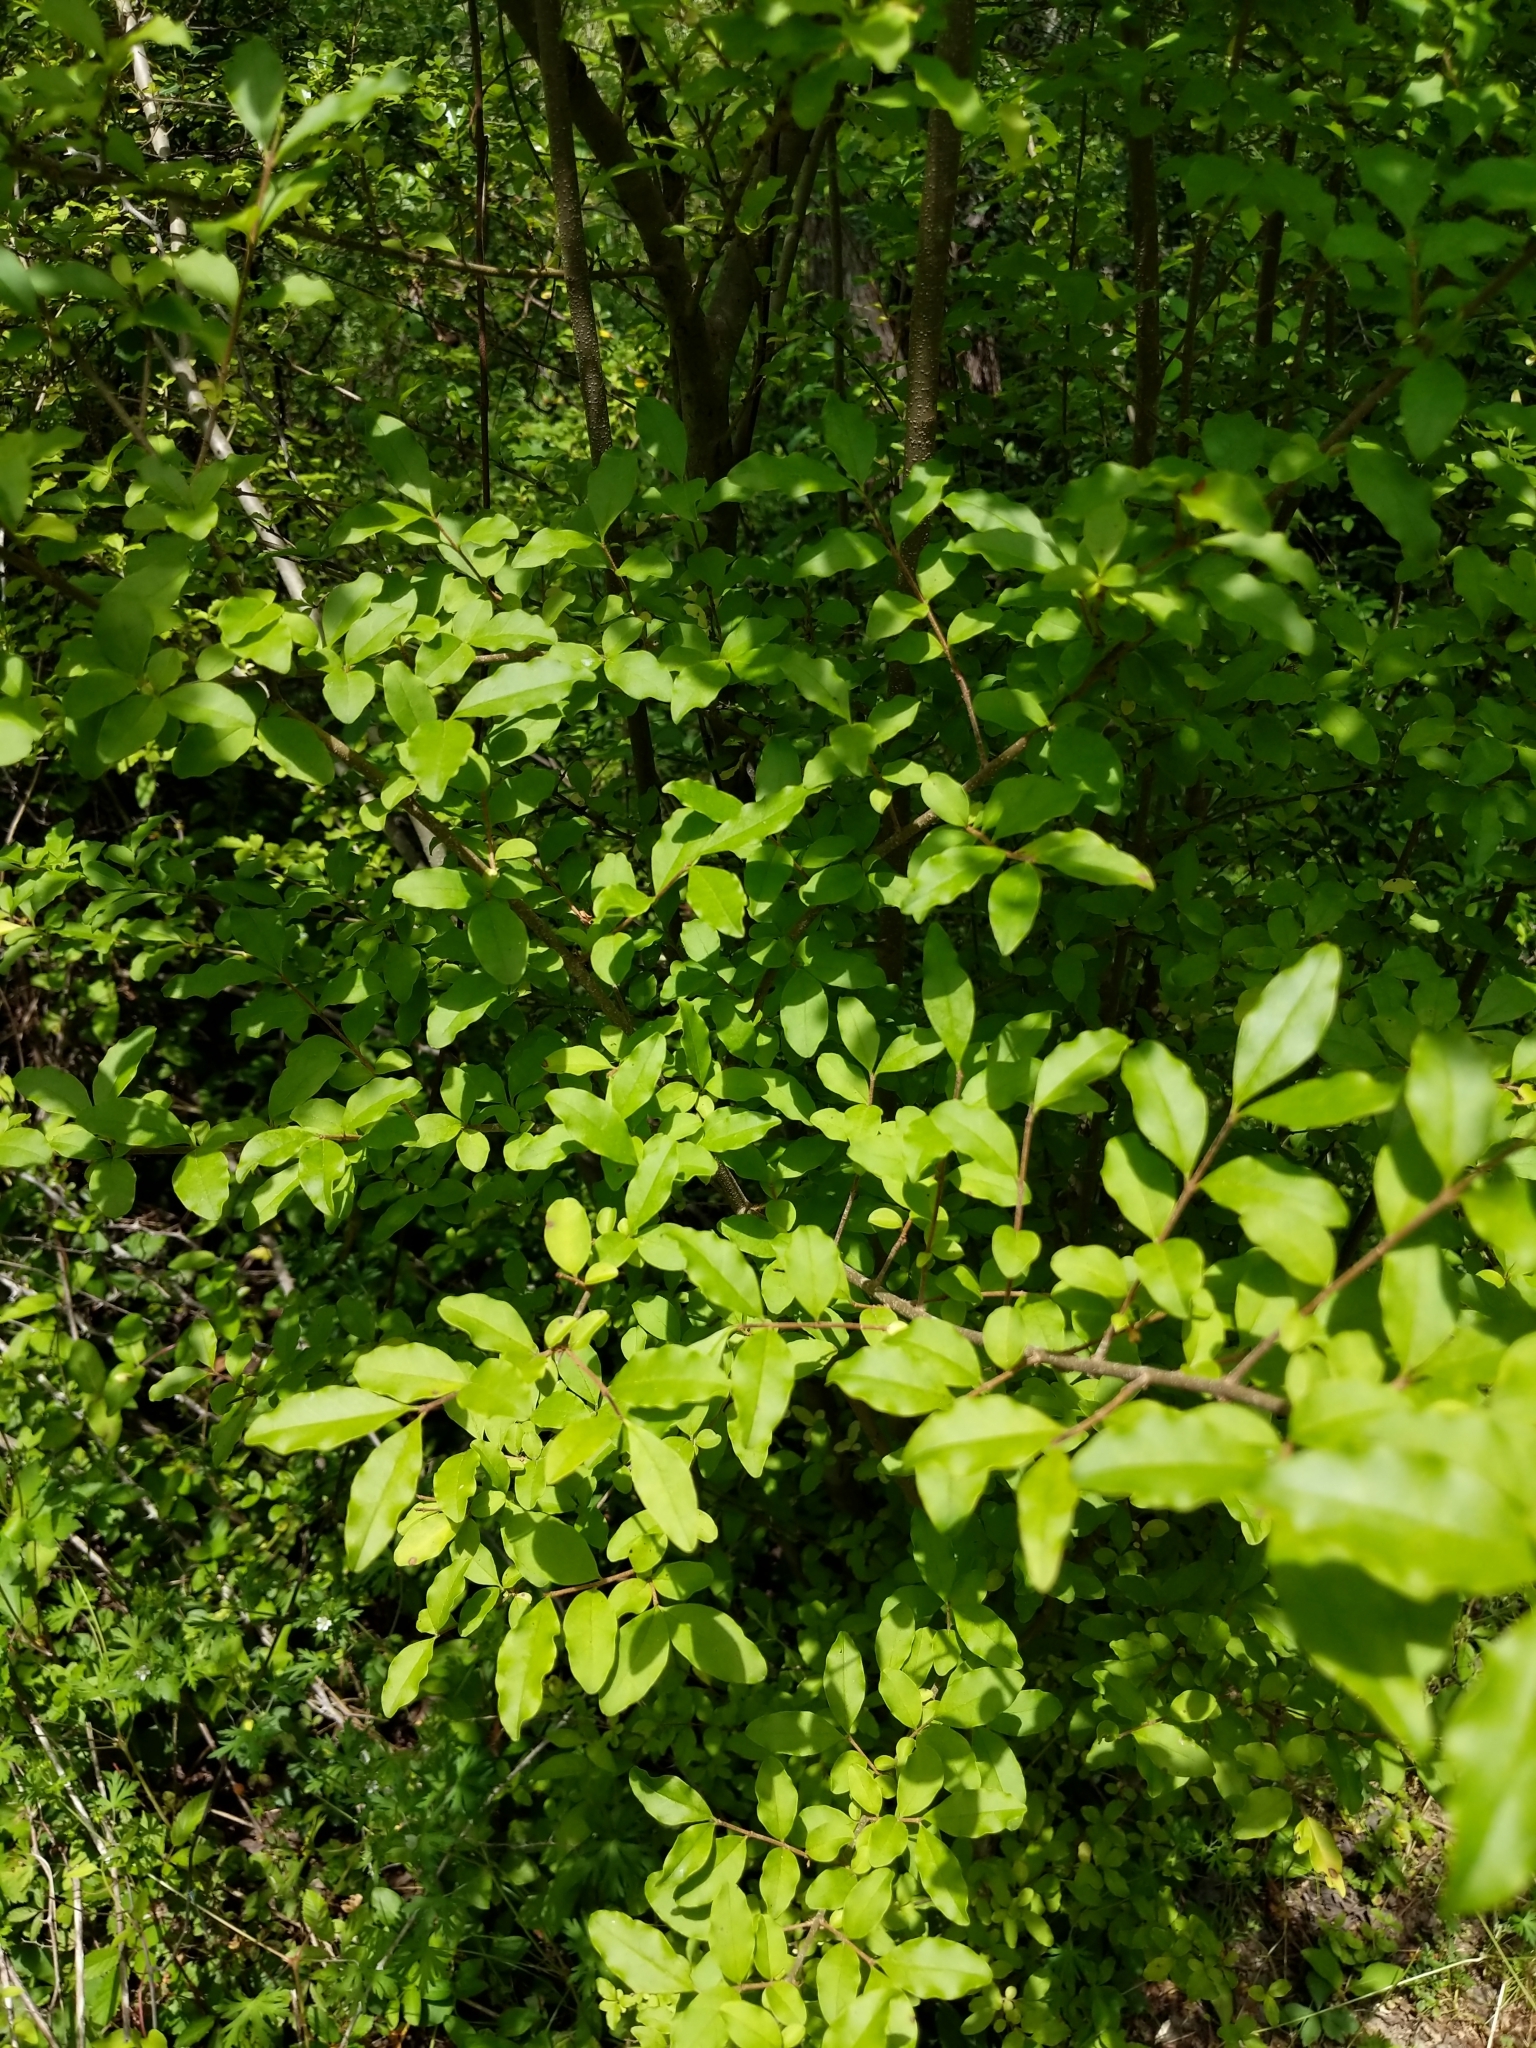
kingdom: Plantae
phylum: Tracheophyta
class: Magnoliopsida
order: Lamiales
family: Oleaceae
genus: Ligustrum
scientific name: Ligustrum sinense
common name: Chinese privet
